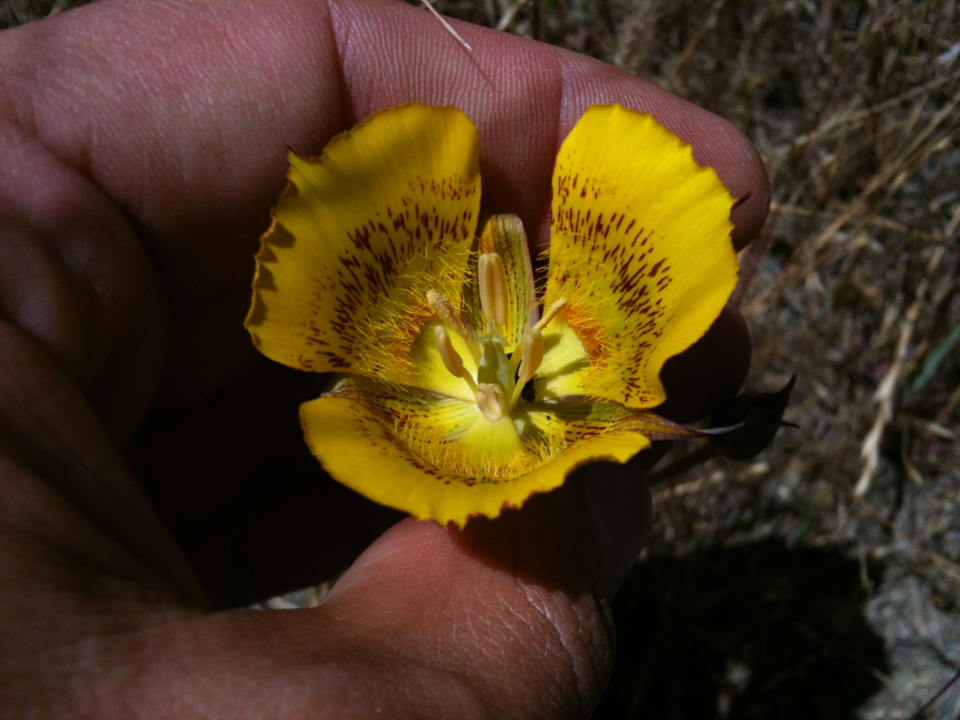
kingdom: Plantae
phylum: Tracheophyta
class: Liliopsida
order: Liliales
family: Liliaceae
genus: Calochortus
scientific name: Calochortus luteus
